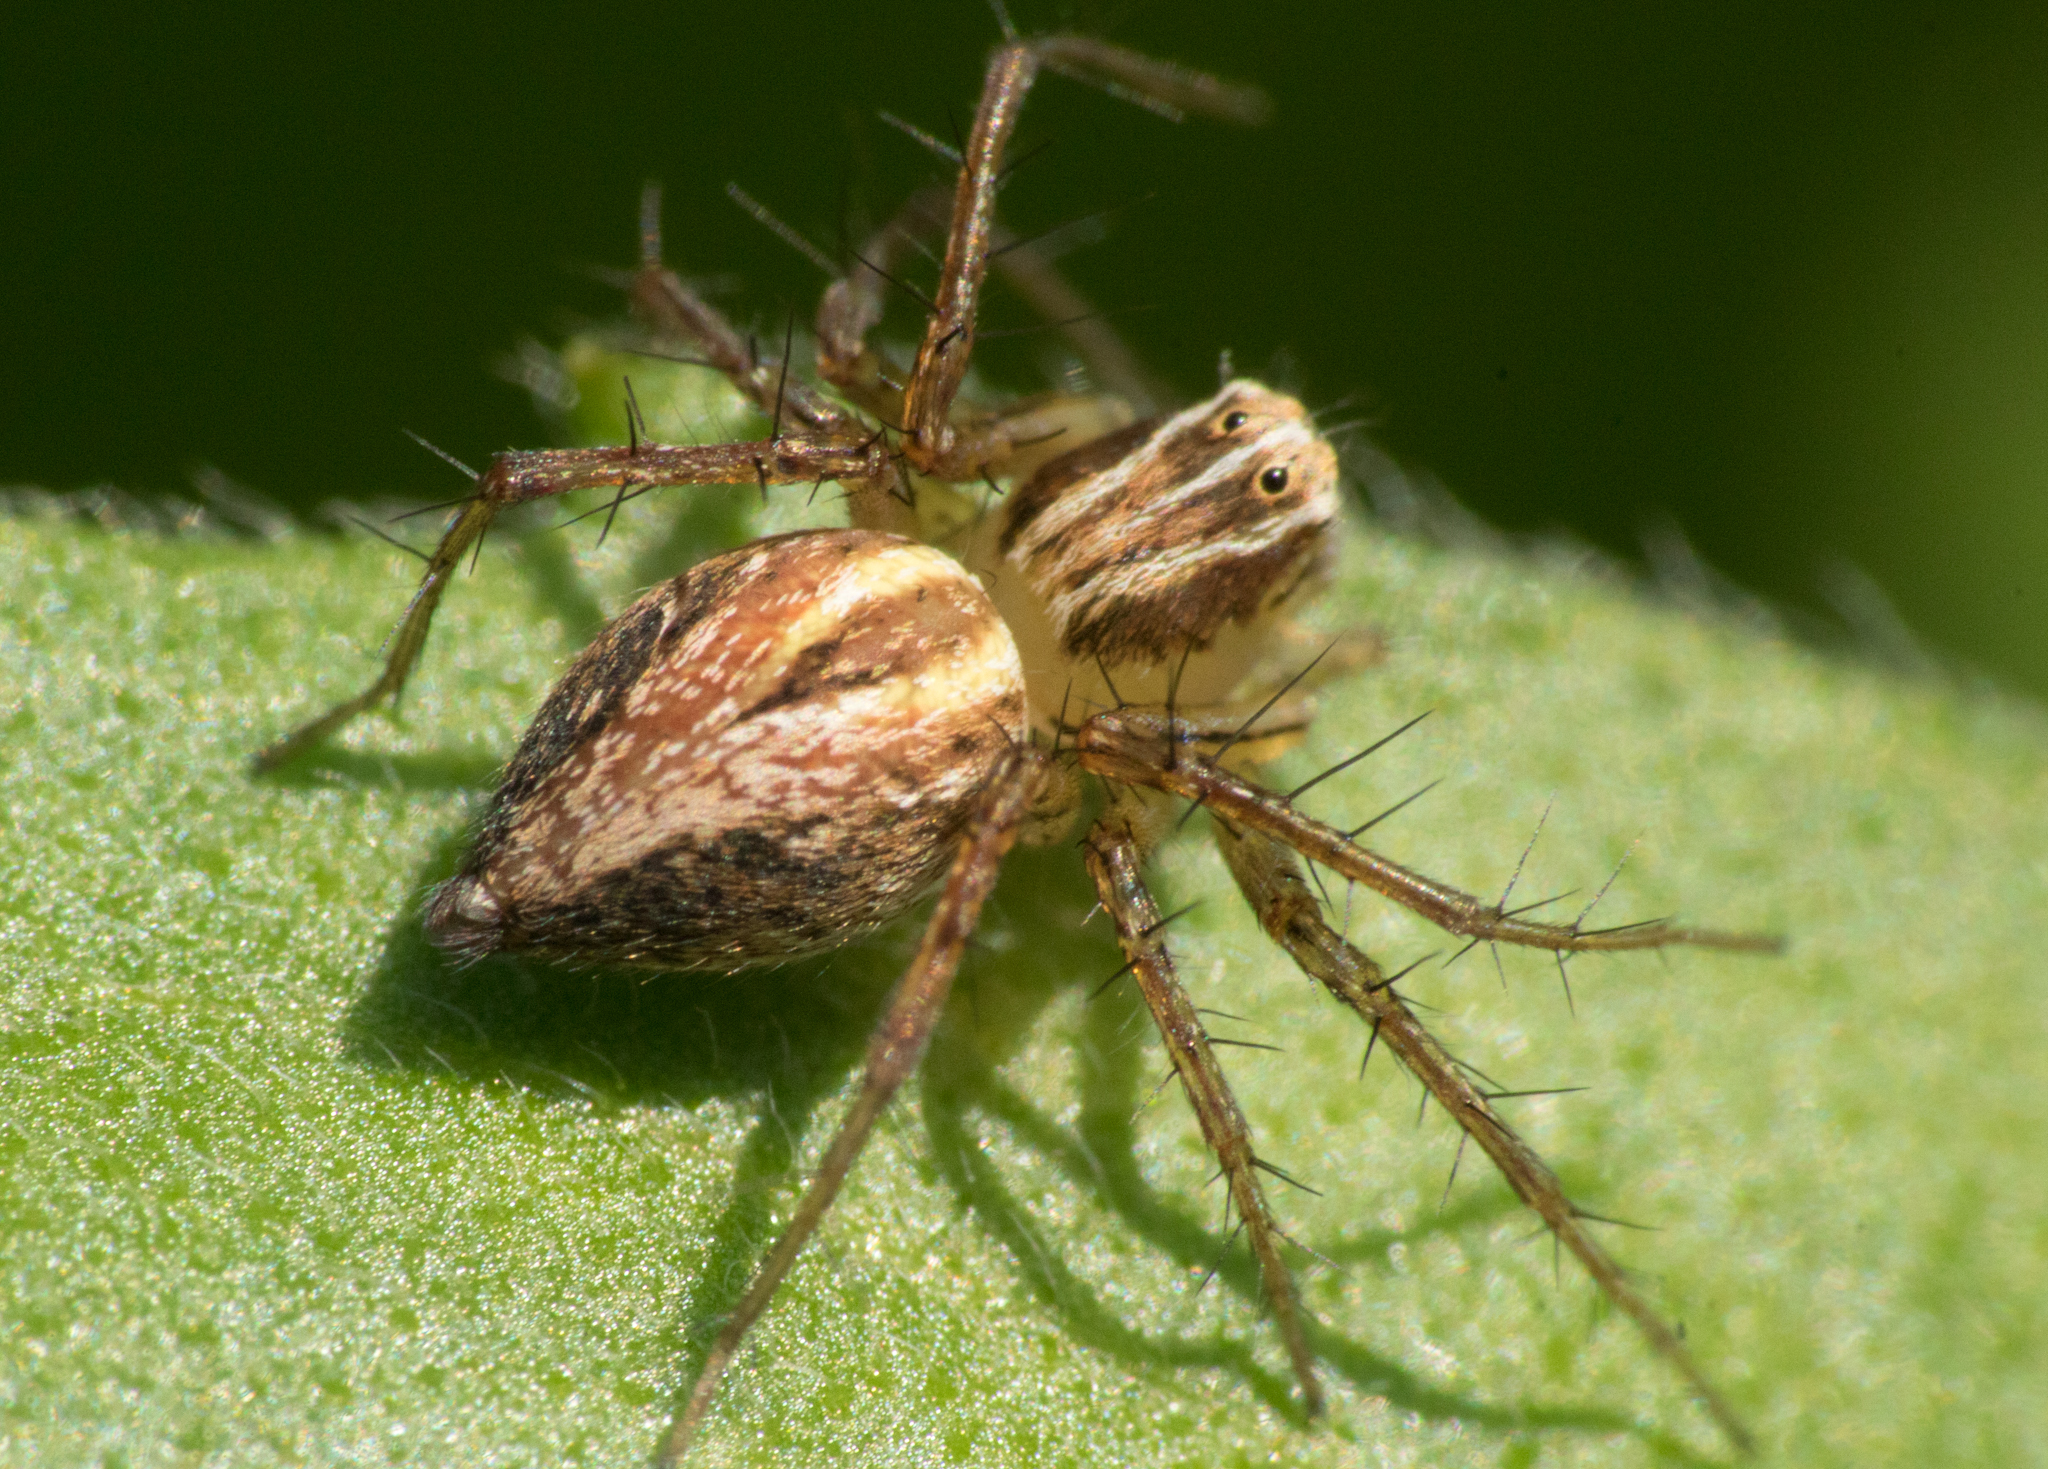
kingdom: Animalia
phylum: Arthropoda
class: Arachnida
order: Araneae
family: Oxyopidae
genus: Oxyopes
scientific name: Oxyopes salticus
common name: Lynx spiders
